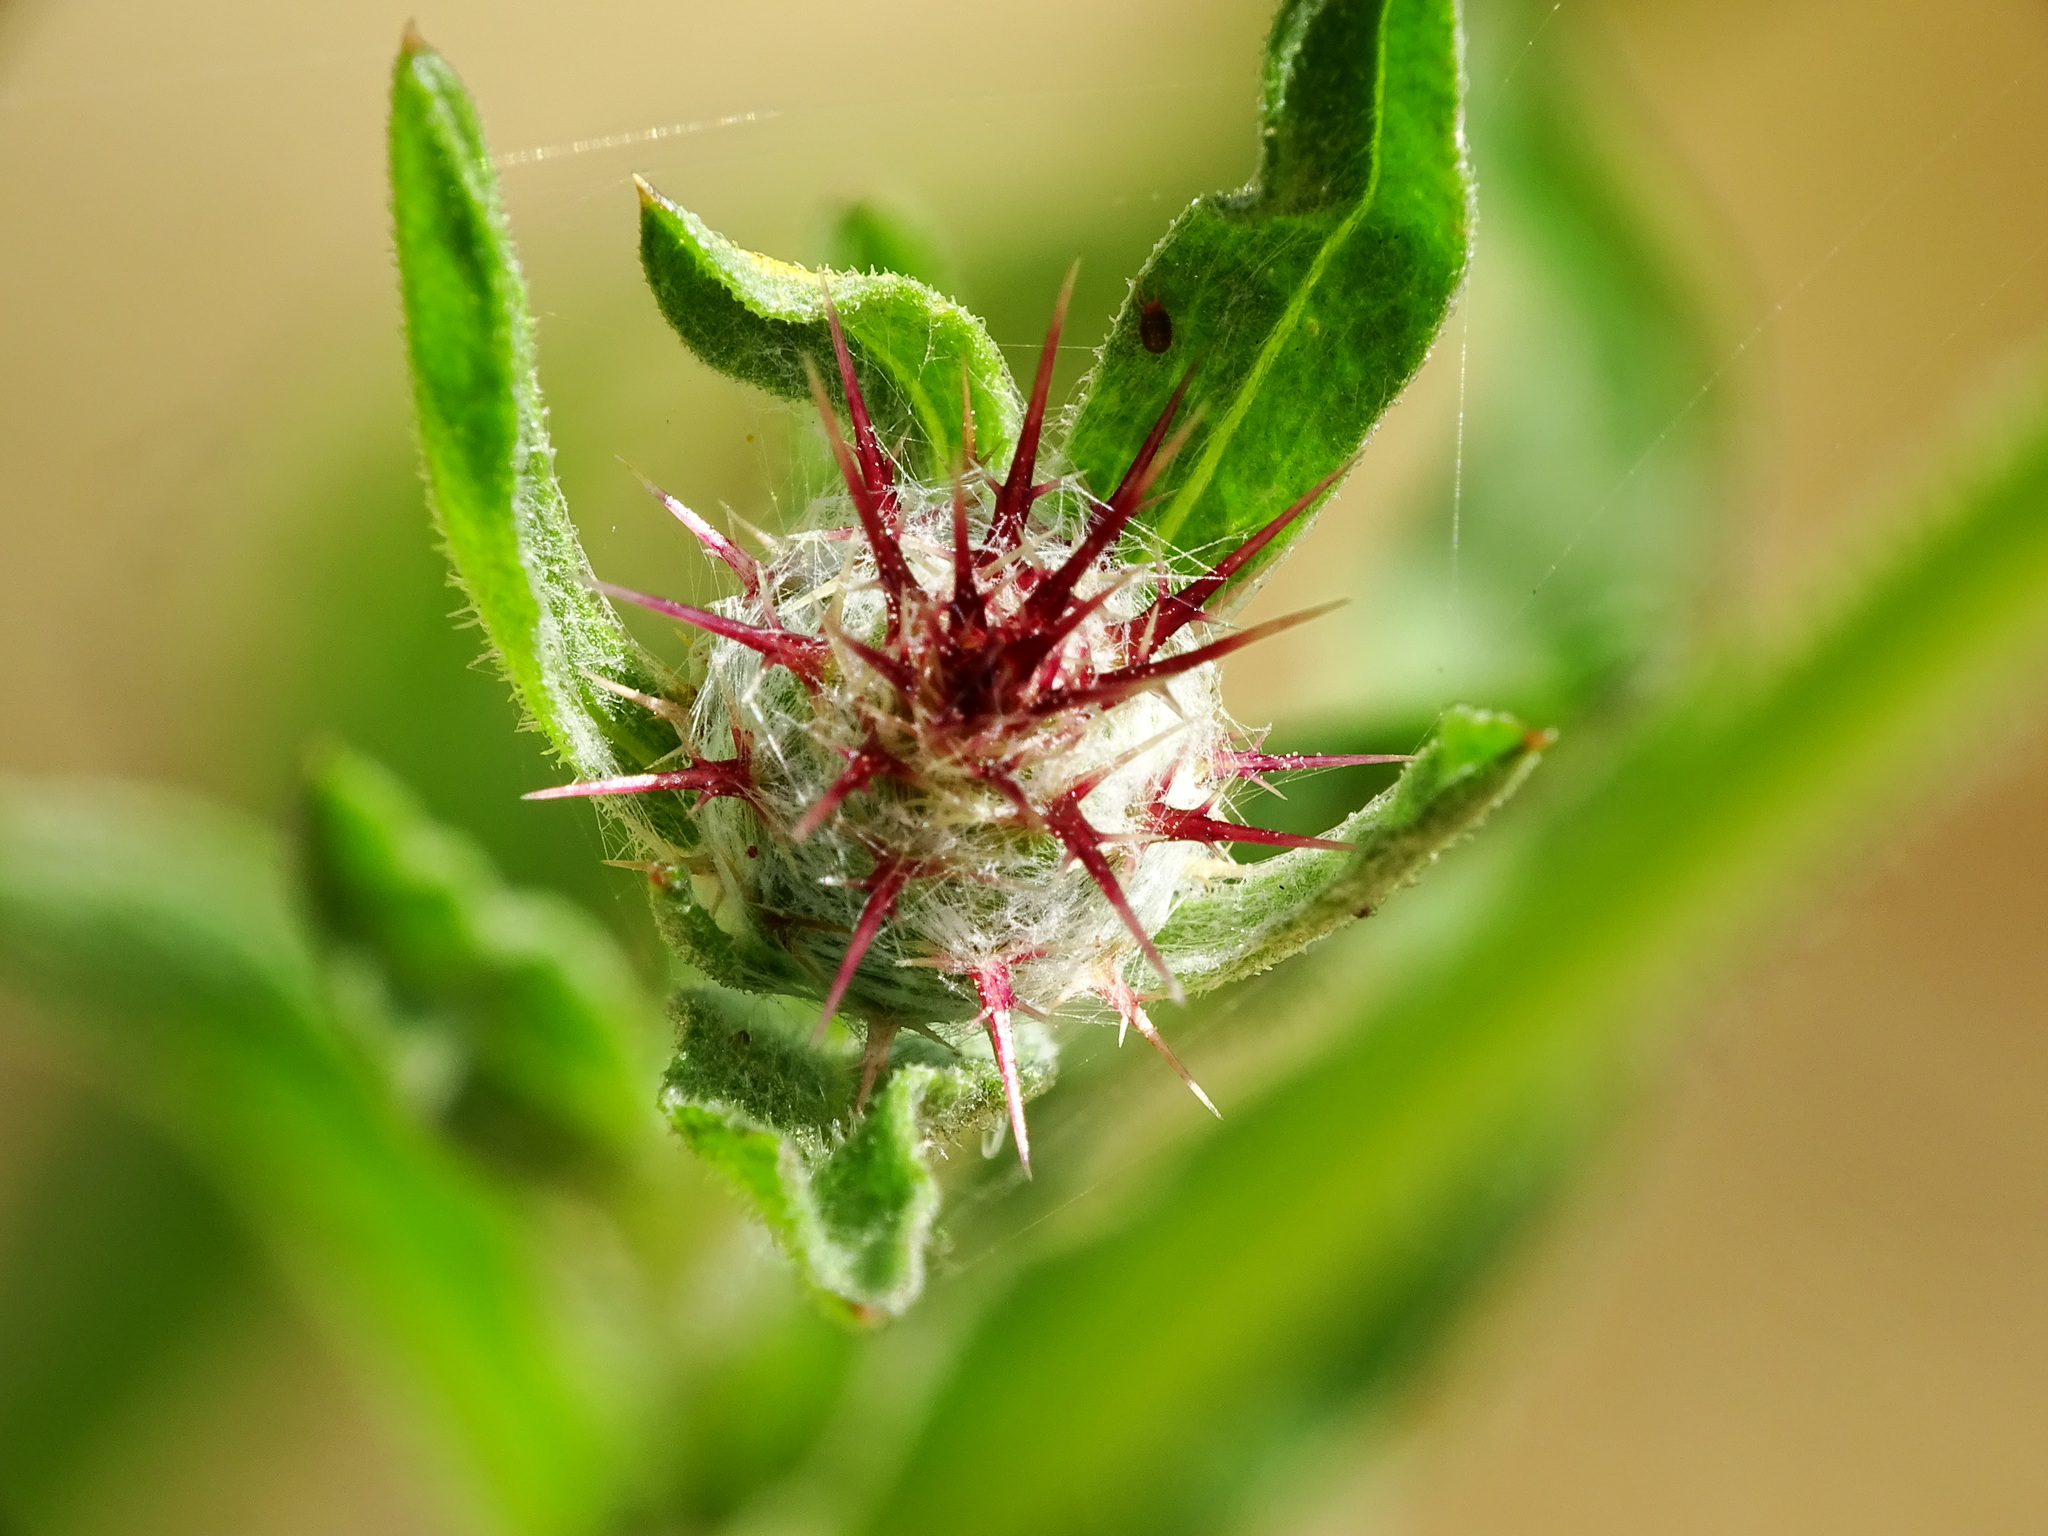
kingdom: Plantae
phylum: Tracheophyta
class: Magnoliopsida
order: Asterales
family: Asteraceae
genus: Centaurea
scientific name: Centaurea melitensis
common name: Maltese star-thistle
